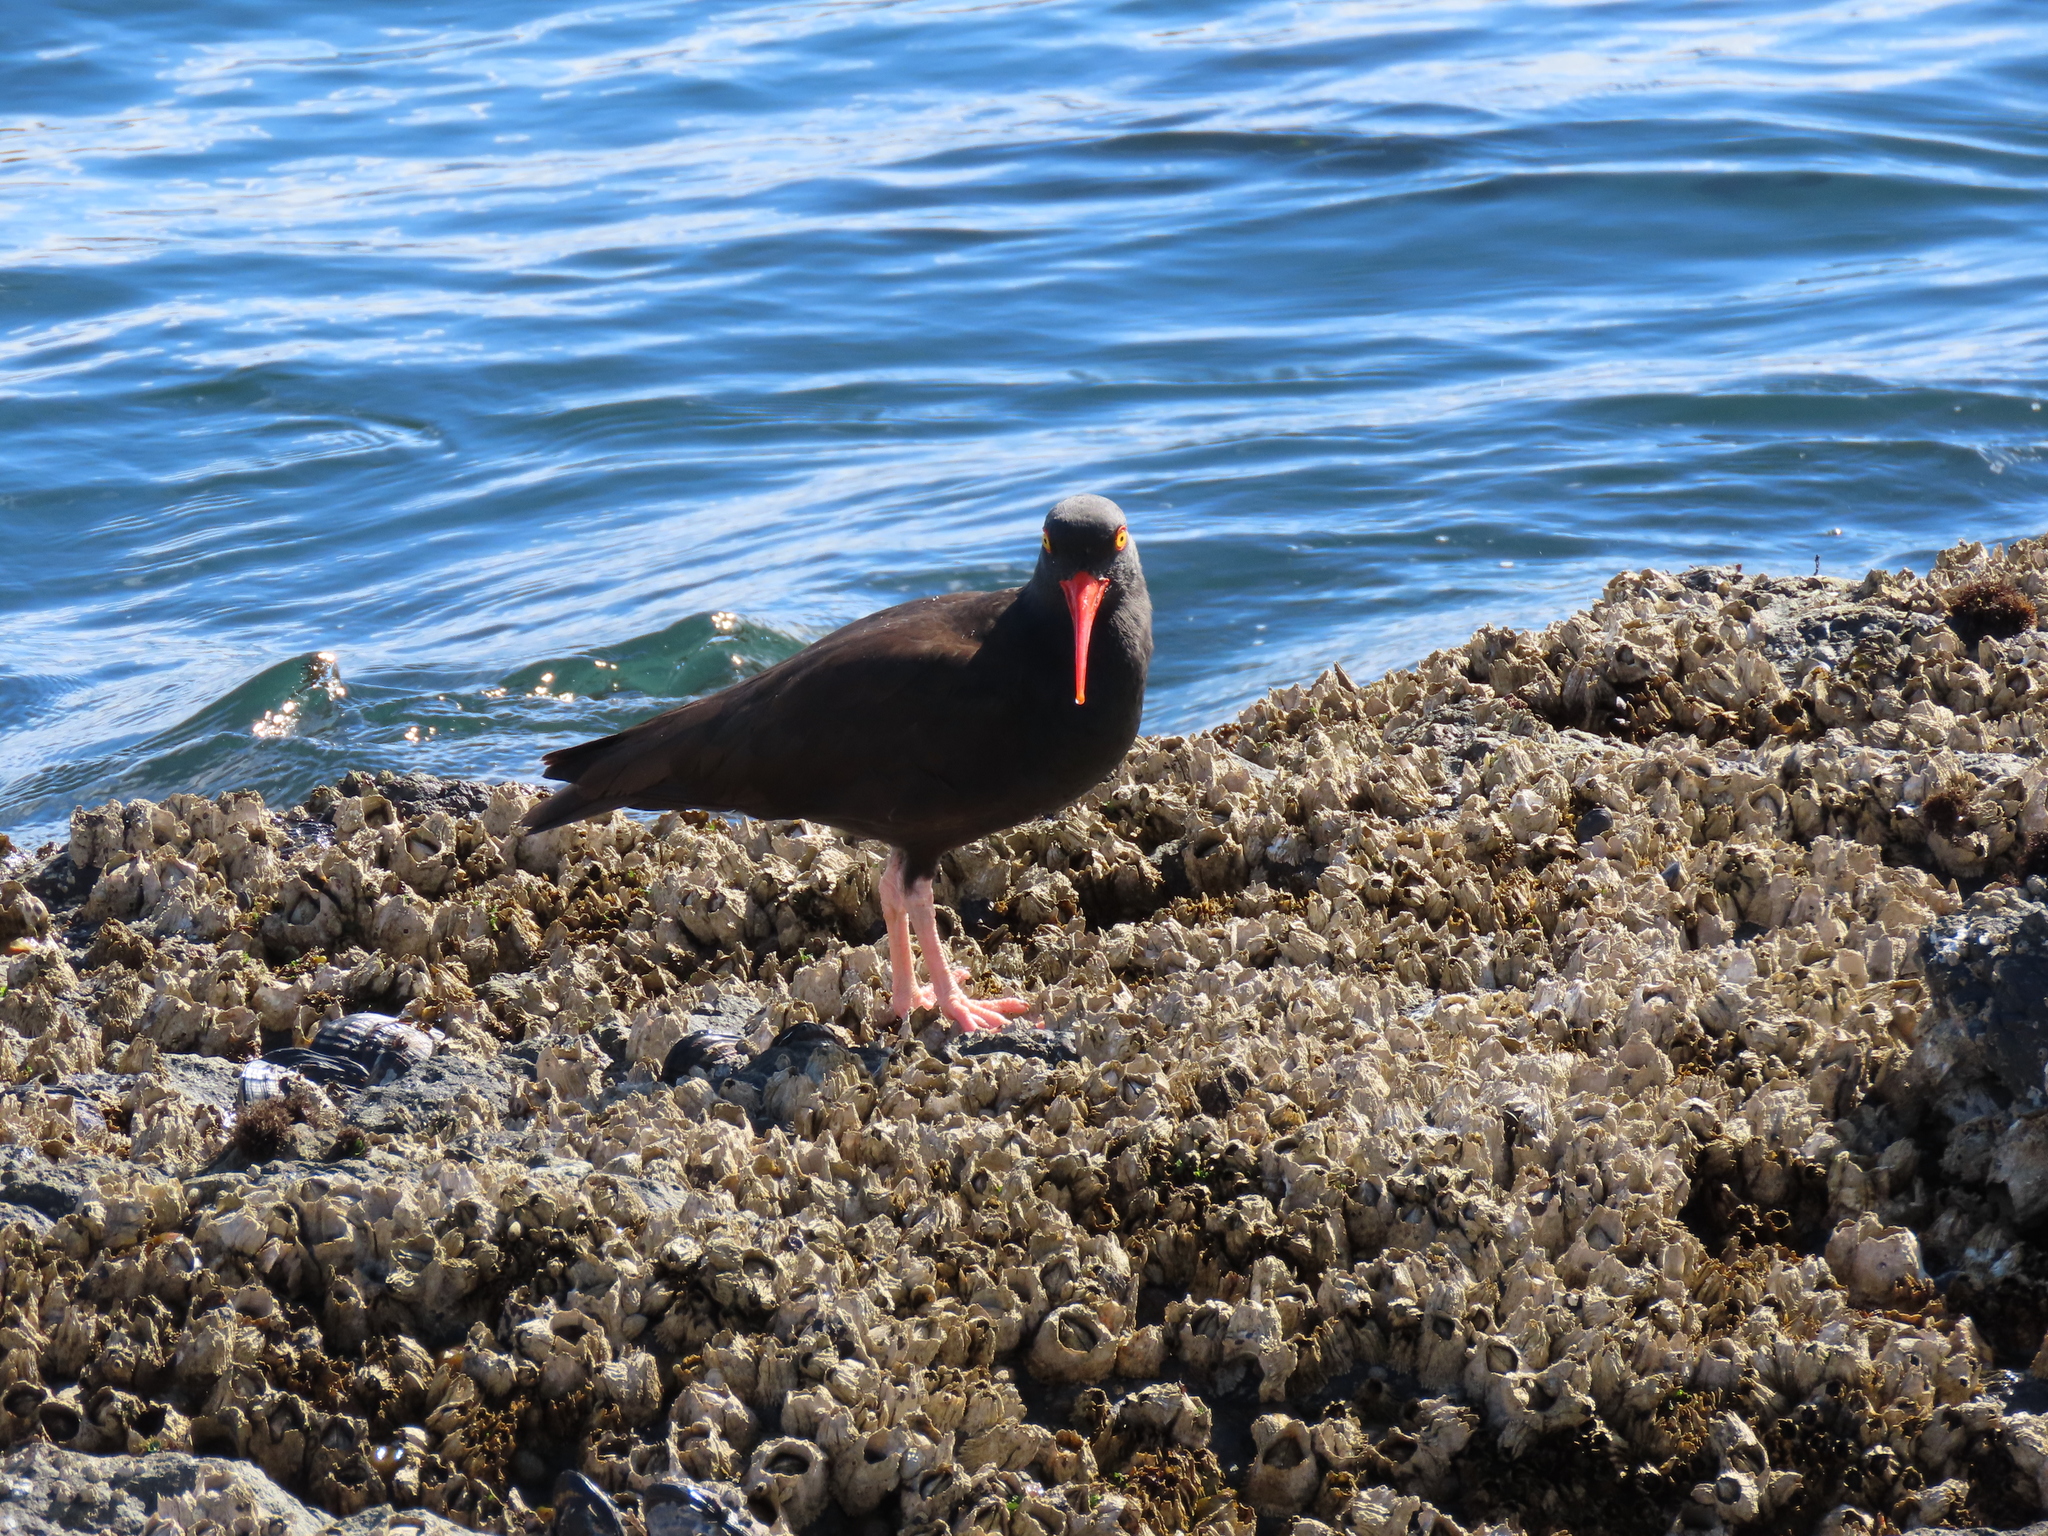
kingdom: Animalia
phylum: Chordata
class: Aves
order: Charadriiformes
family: Haematopodidae
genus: Haematopus
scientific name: Haematopus bachmani
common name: Black oystercatcher
